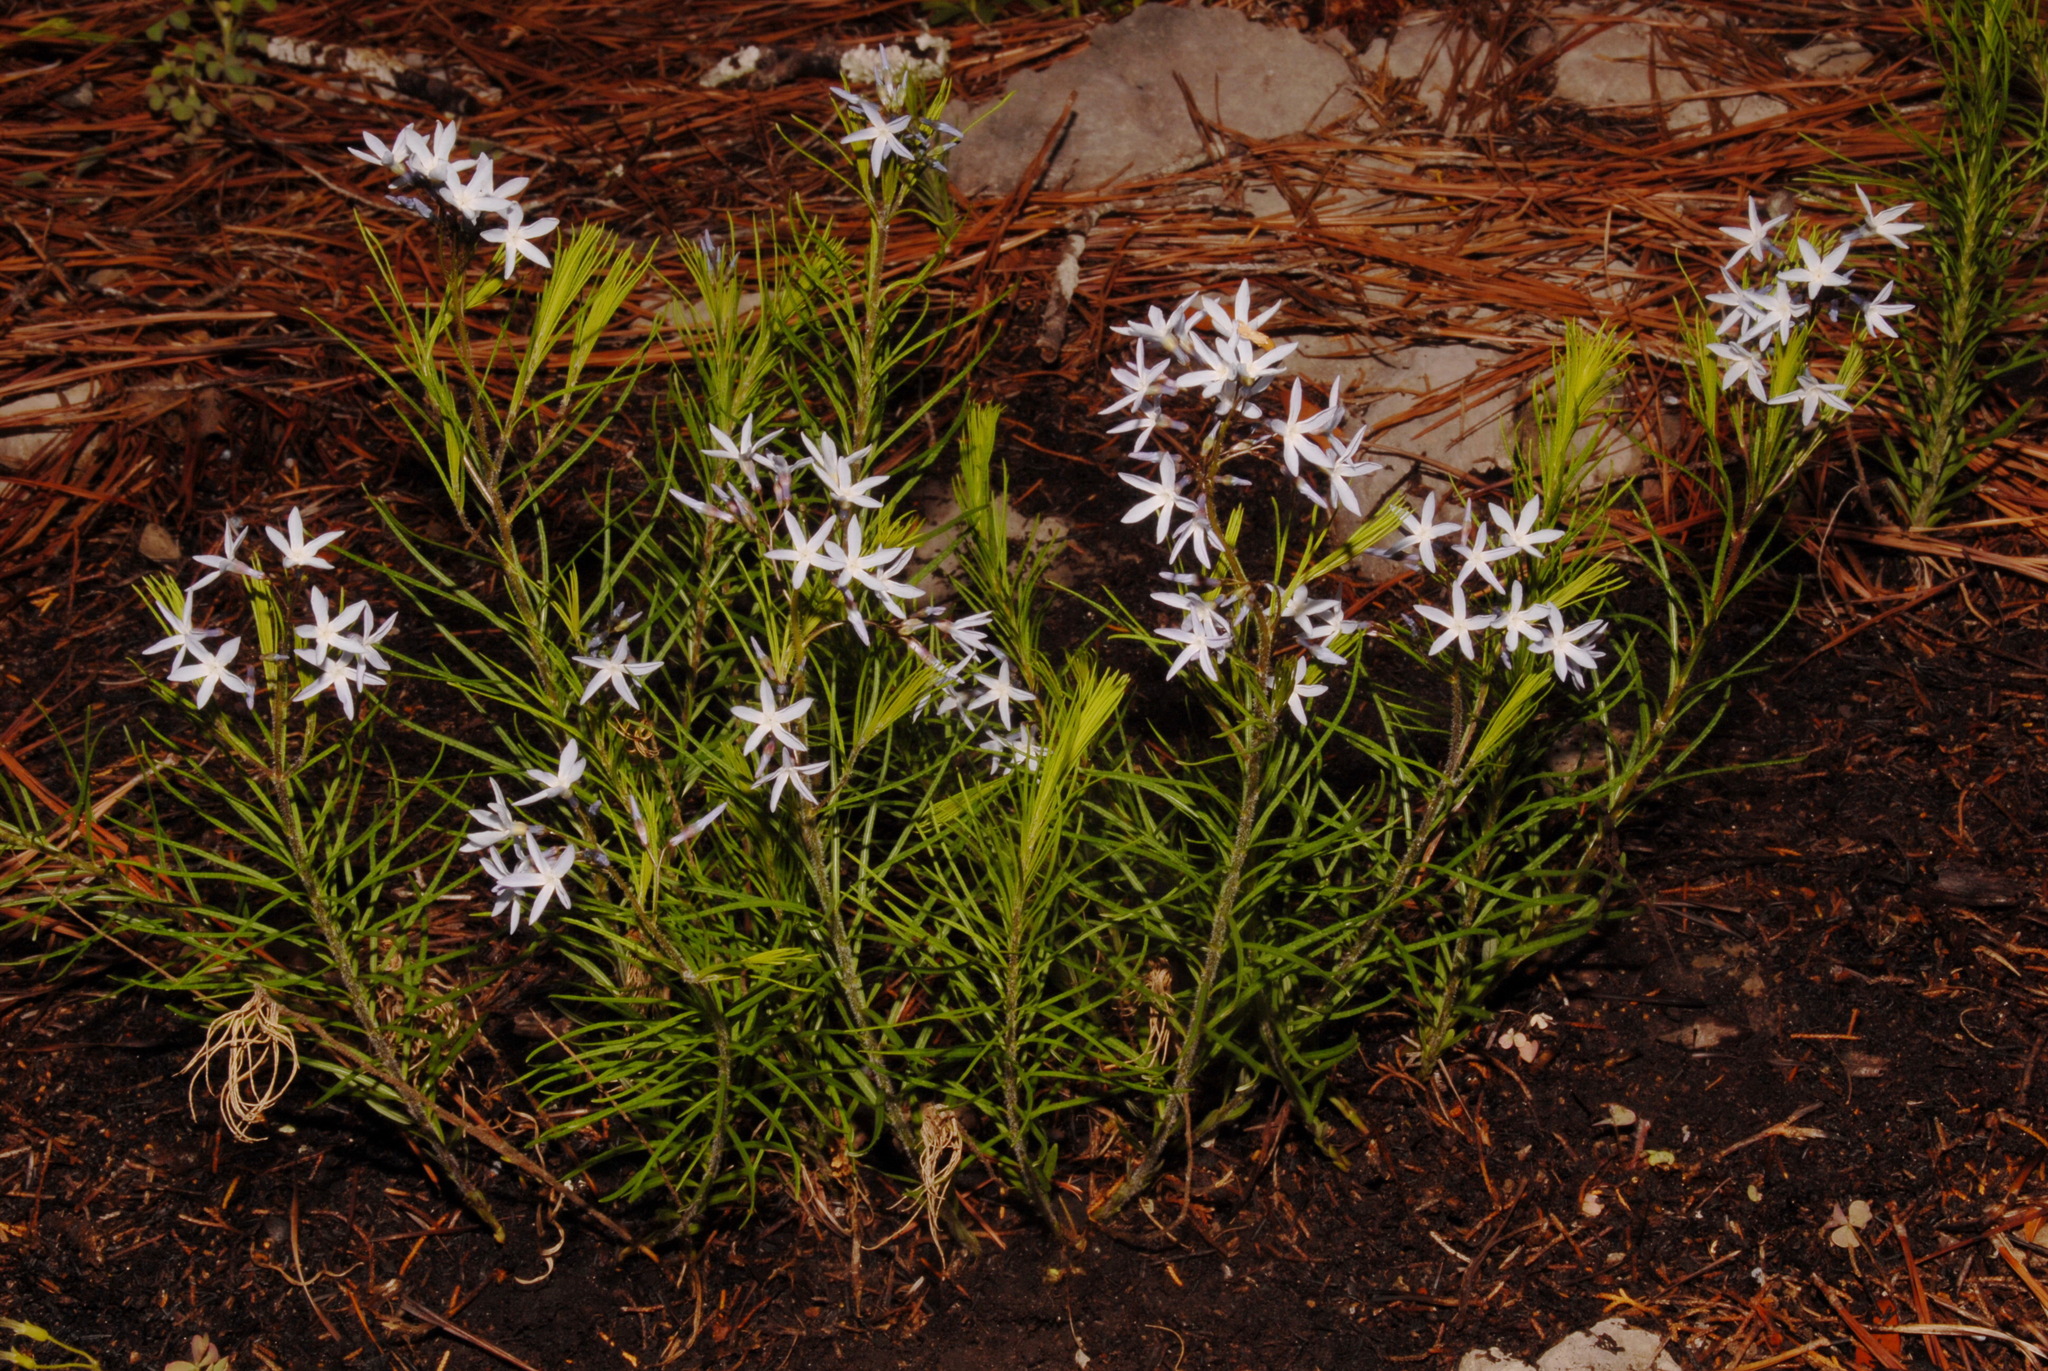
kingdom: Plantae
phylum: Tracheophyta
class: Magnoliopsida
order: Gentianales
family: Apocynaceae
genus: Amsonia
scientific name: Amsonia ciliata
